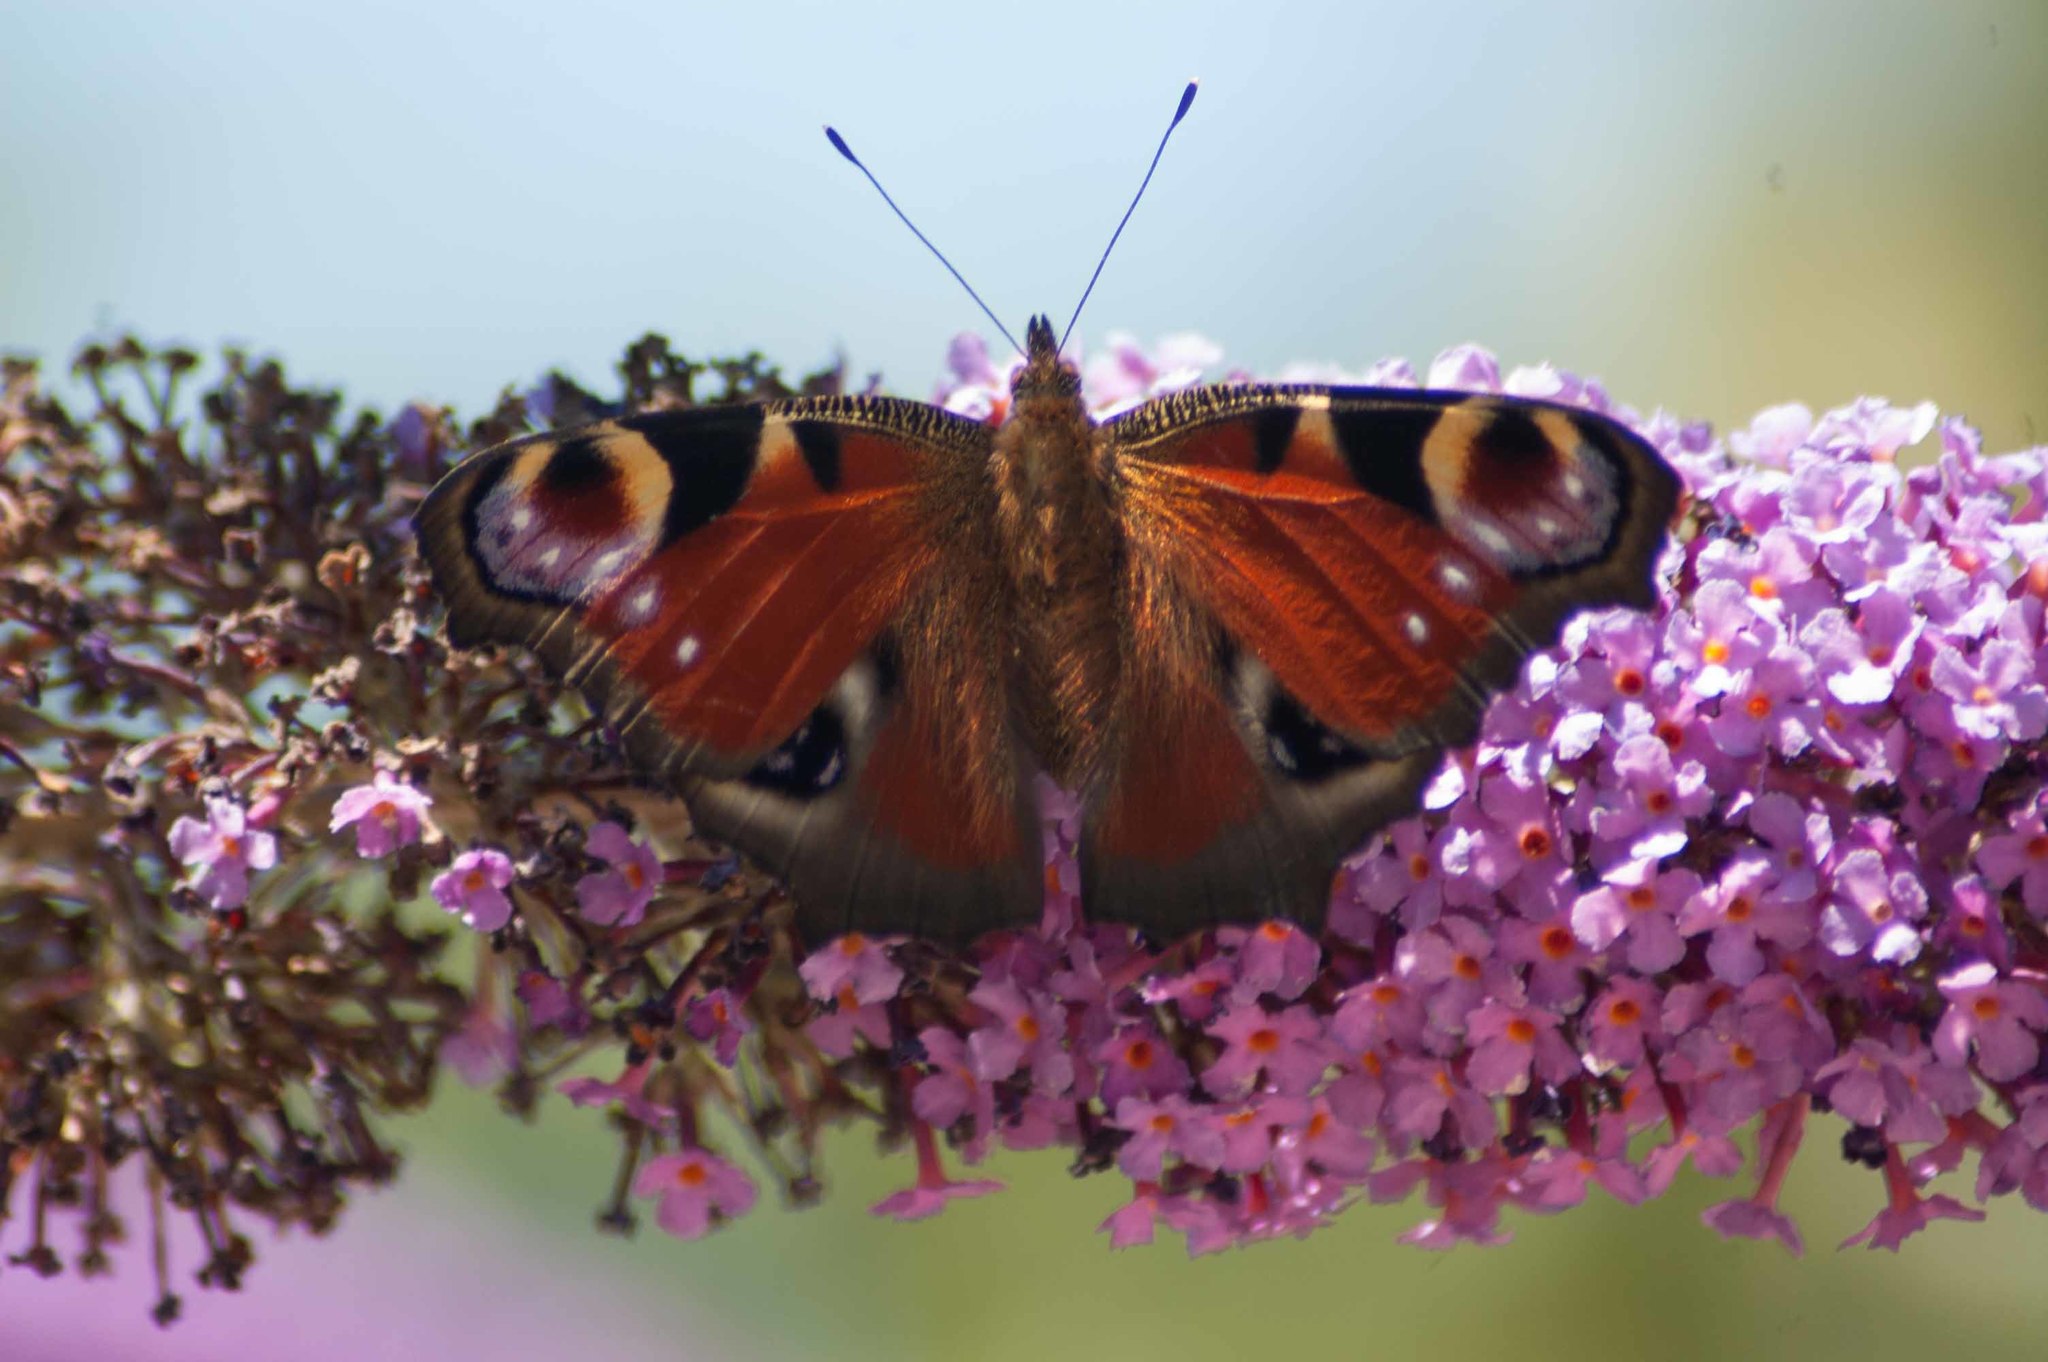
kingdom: Animalia
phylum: Arthropoda
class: Insecta
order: Lepidoptera
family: Nymphalidae
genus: Aglais
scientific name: Aglais io
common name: Peacock
